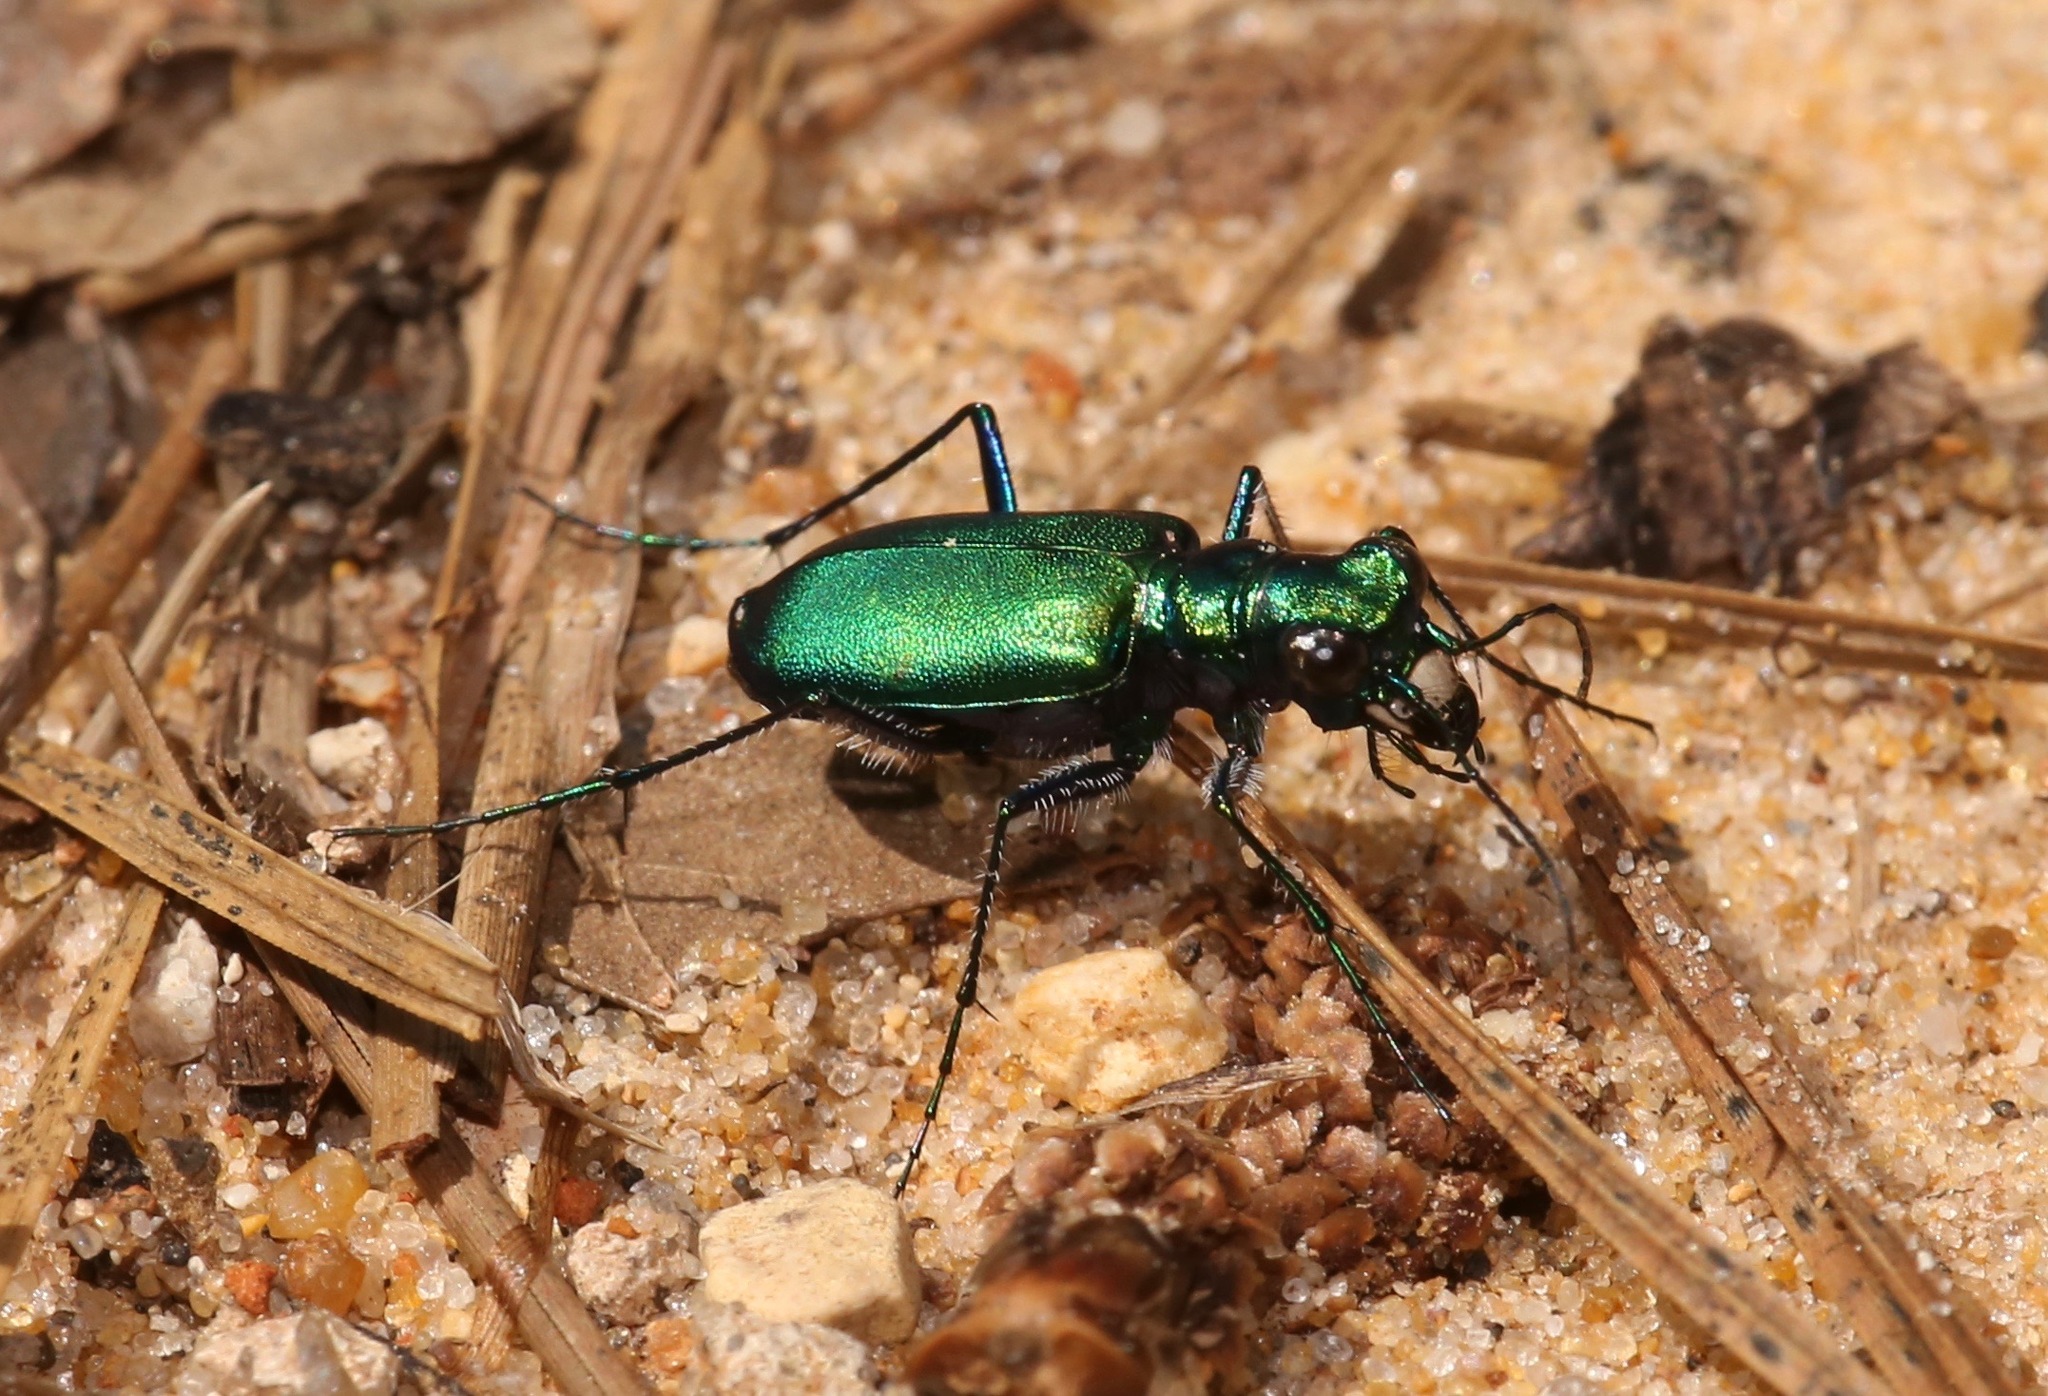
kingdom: Animalia
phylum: Arthropoda
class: Insecta
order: Coleoptera
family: Carabidae
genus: Cicindela
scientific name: Cicindela sexguttata
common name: Six-spotted tiger beetle
